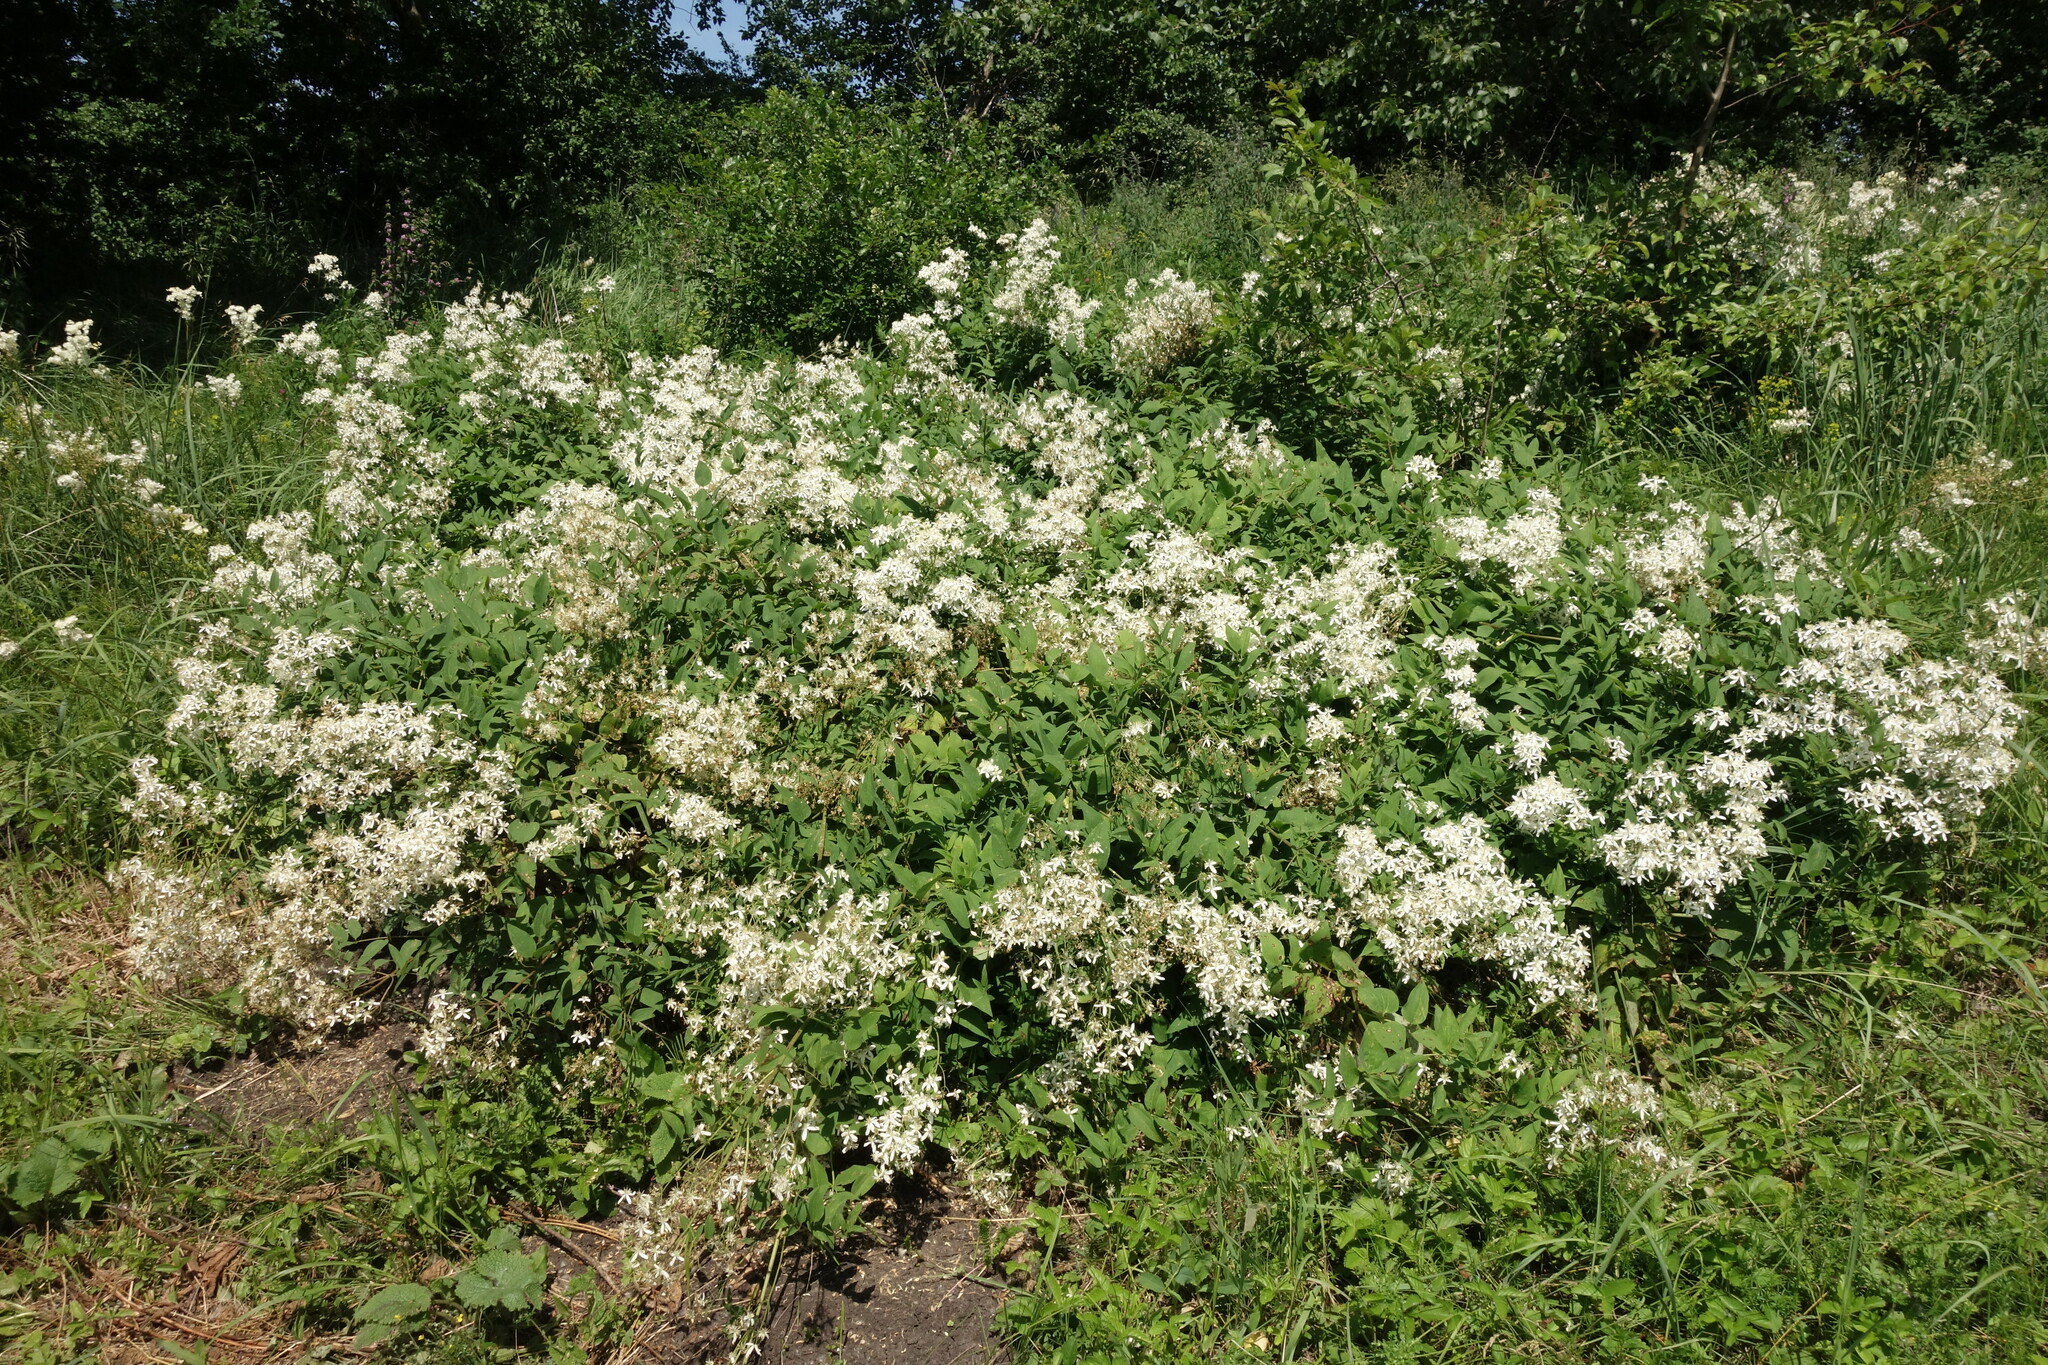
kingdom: Plantae
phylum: Tracheophyta
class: Magnoliopsida
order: Ranunculales
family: Ranunculaceae
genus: Clematis
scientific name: Clematis recta
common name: Ground clematis
